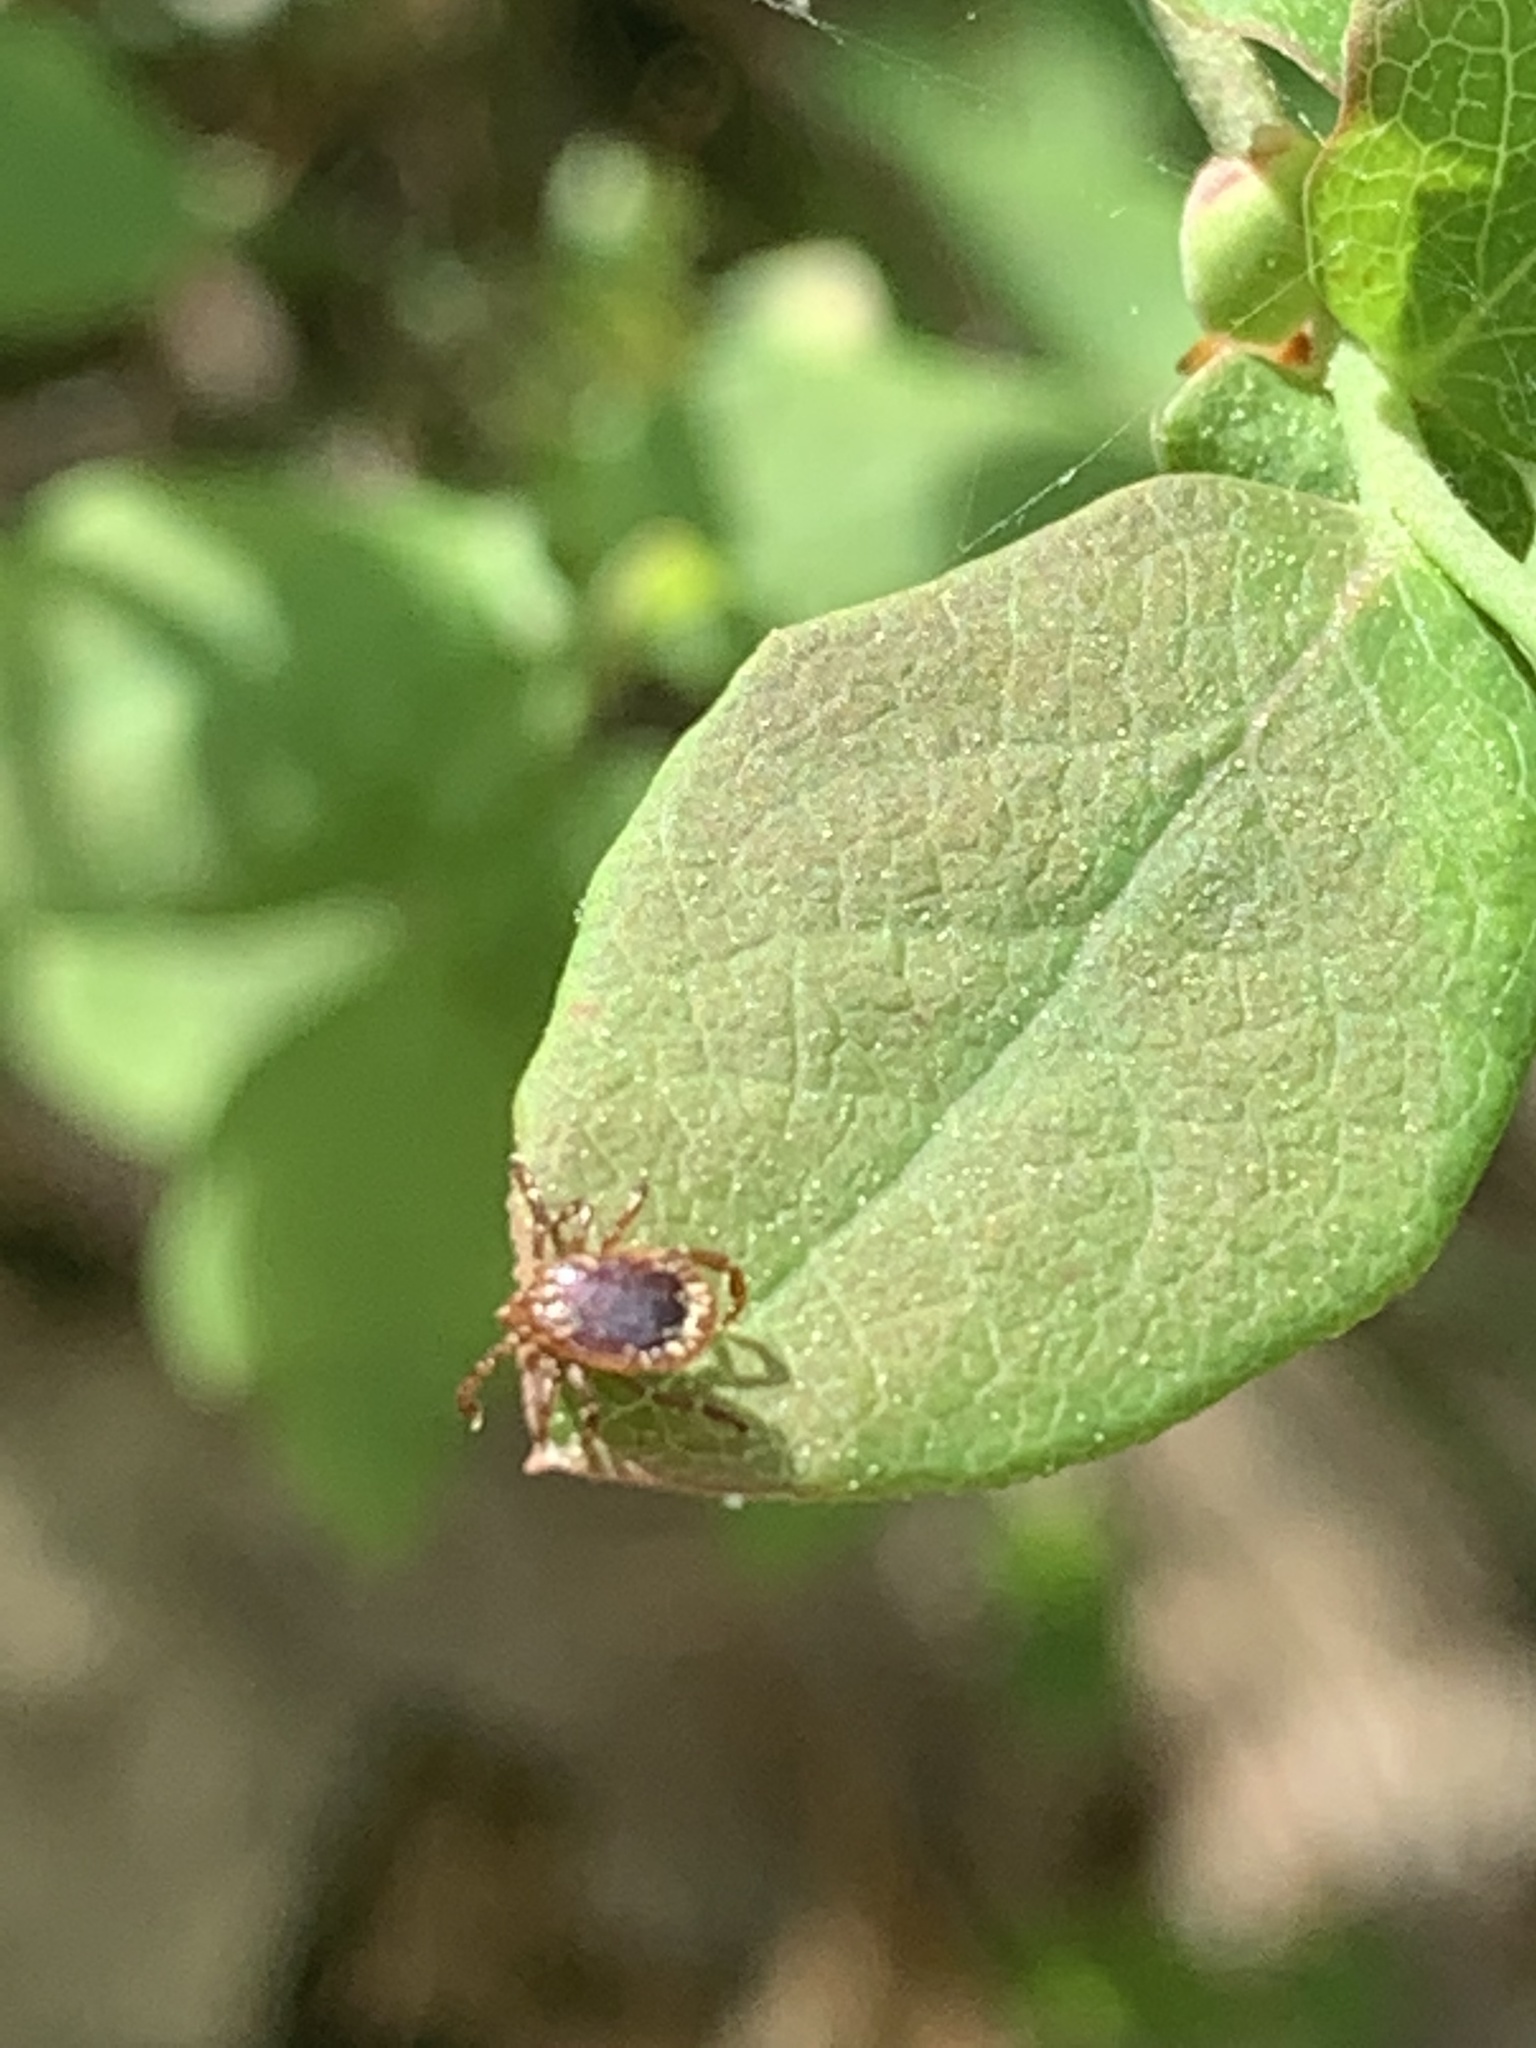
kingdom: Animalia
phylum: Arthropoda
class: Arachnida
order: Ixodida
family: Ixodidae
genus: Amblyomma
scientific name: Amblyomma americanum
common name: Lone star tick
